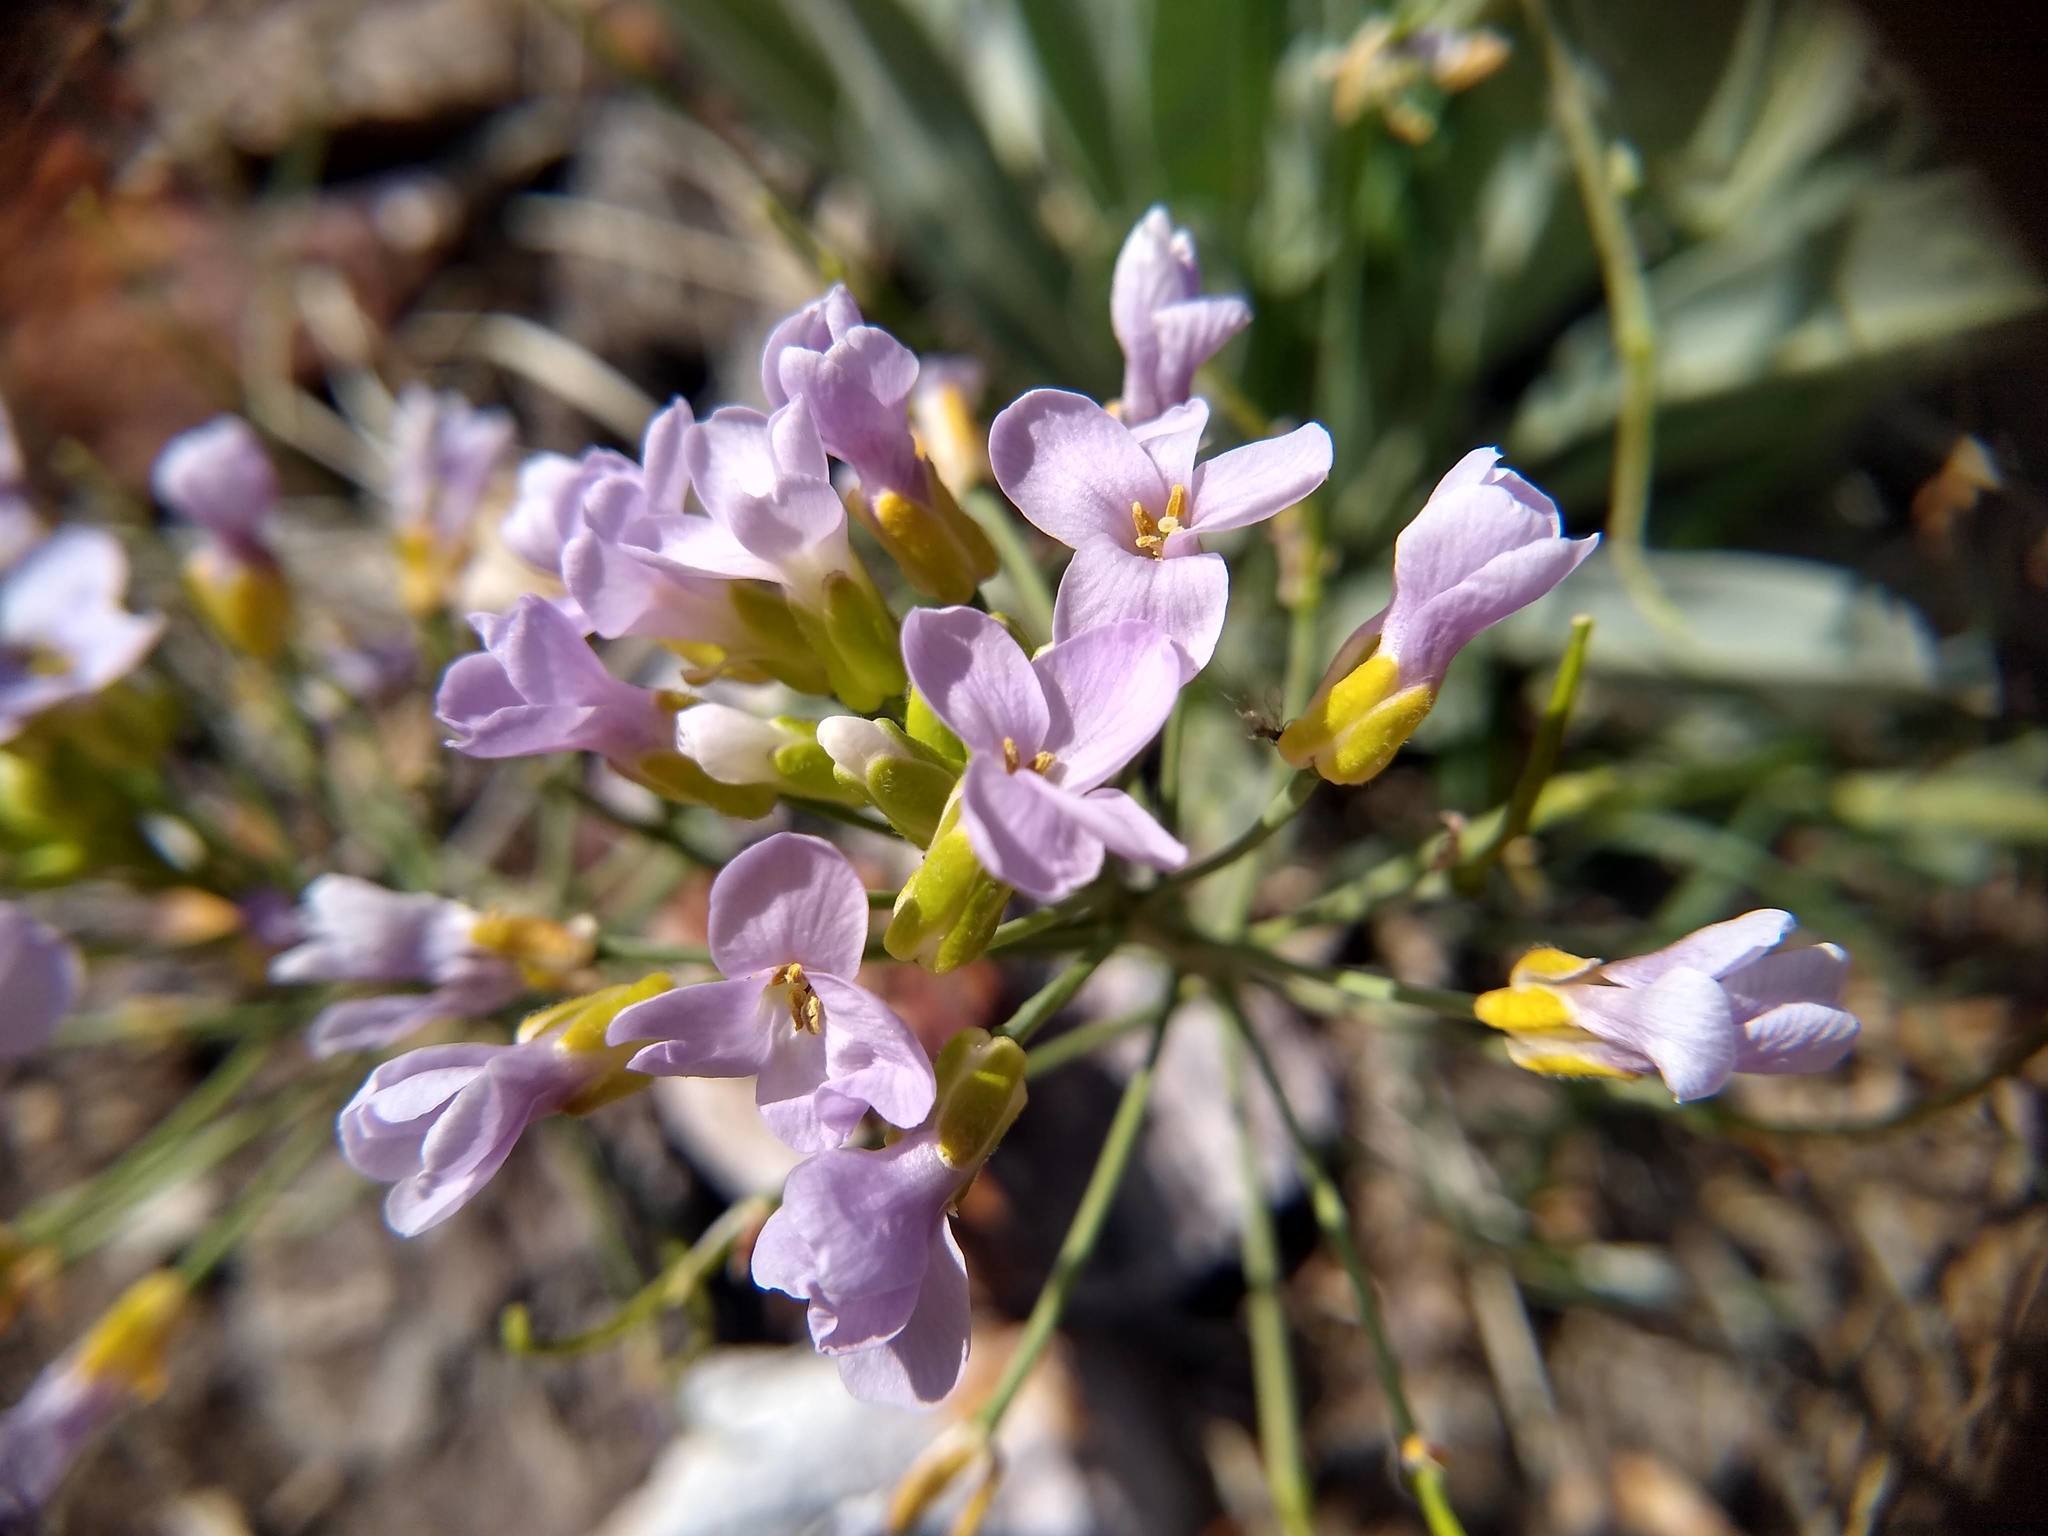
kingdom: Plantae
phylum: Tracheophyta
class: Magnoliopsida
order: Brassicales
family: Brassicaceae
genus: Phoenicaulis
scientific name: Phoenicaulis cheiranthoides
